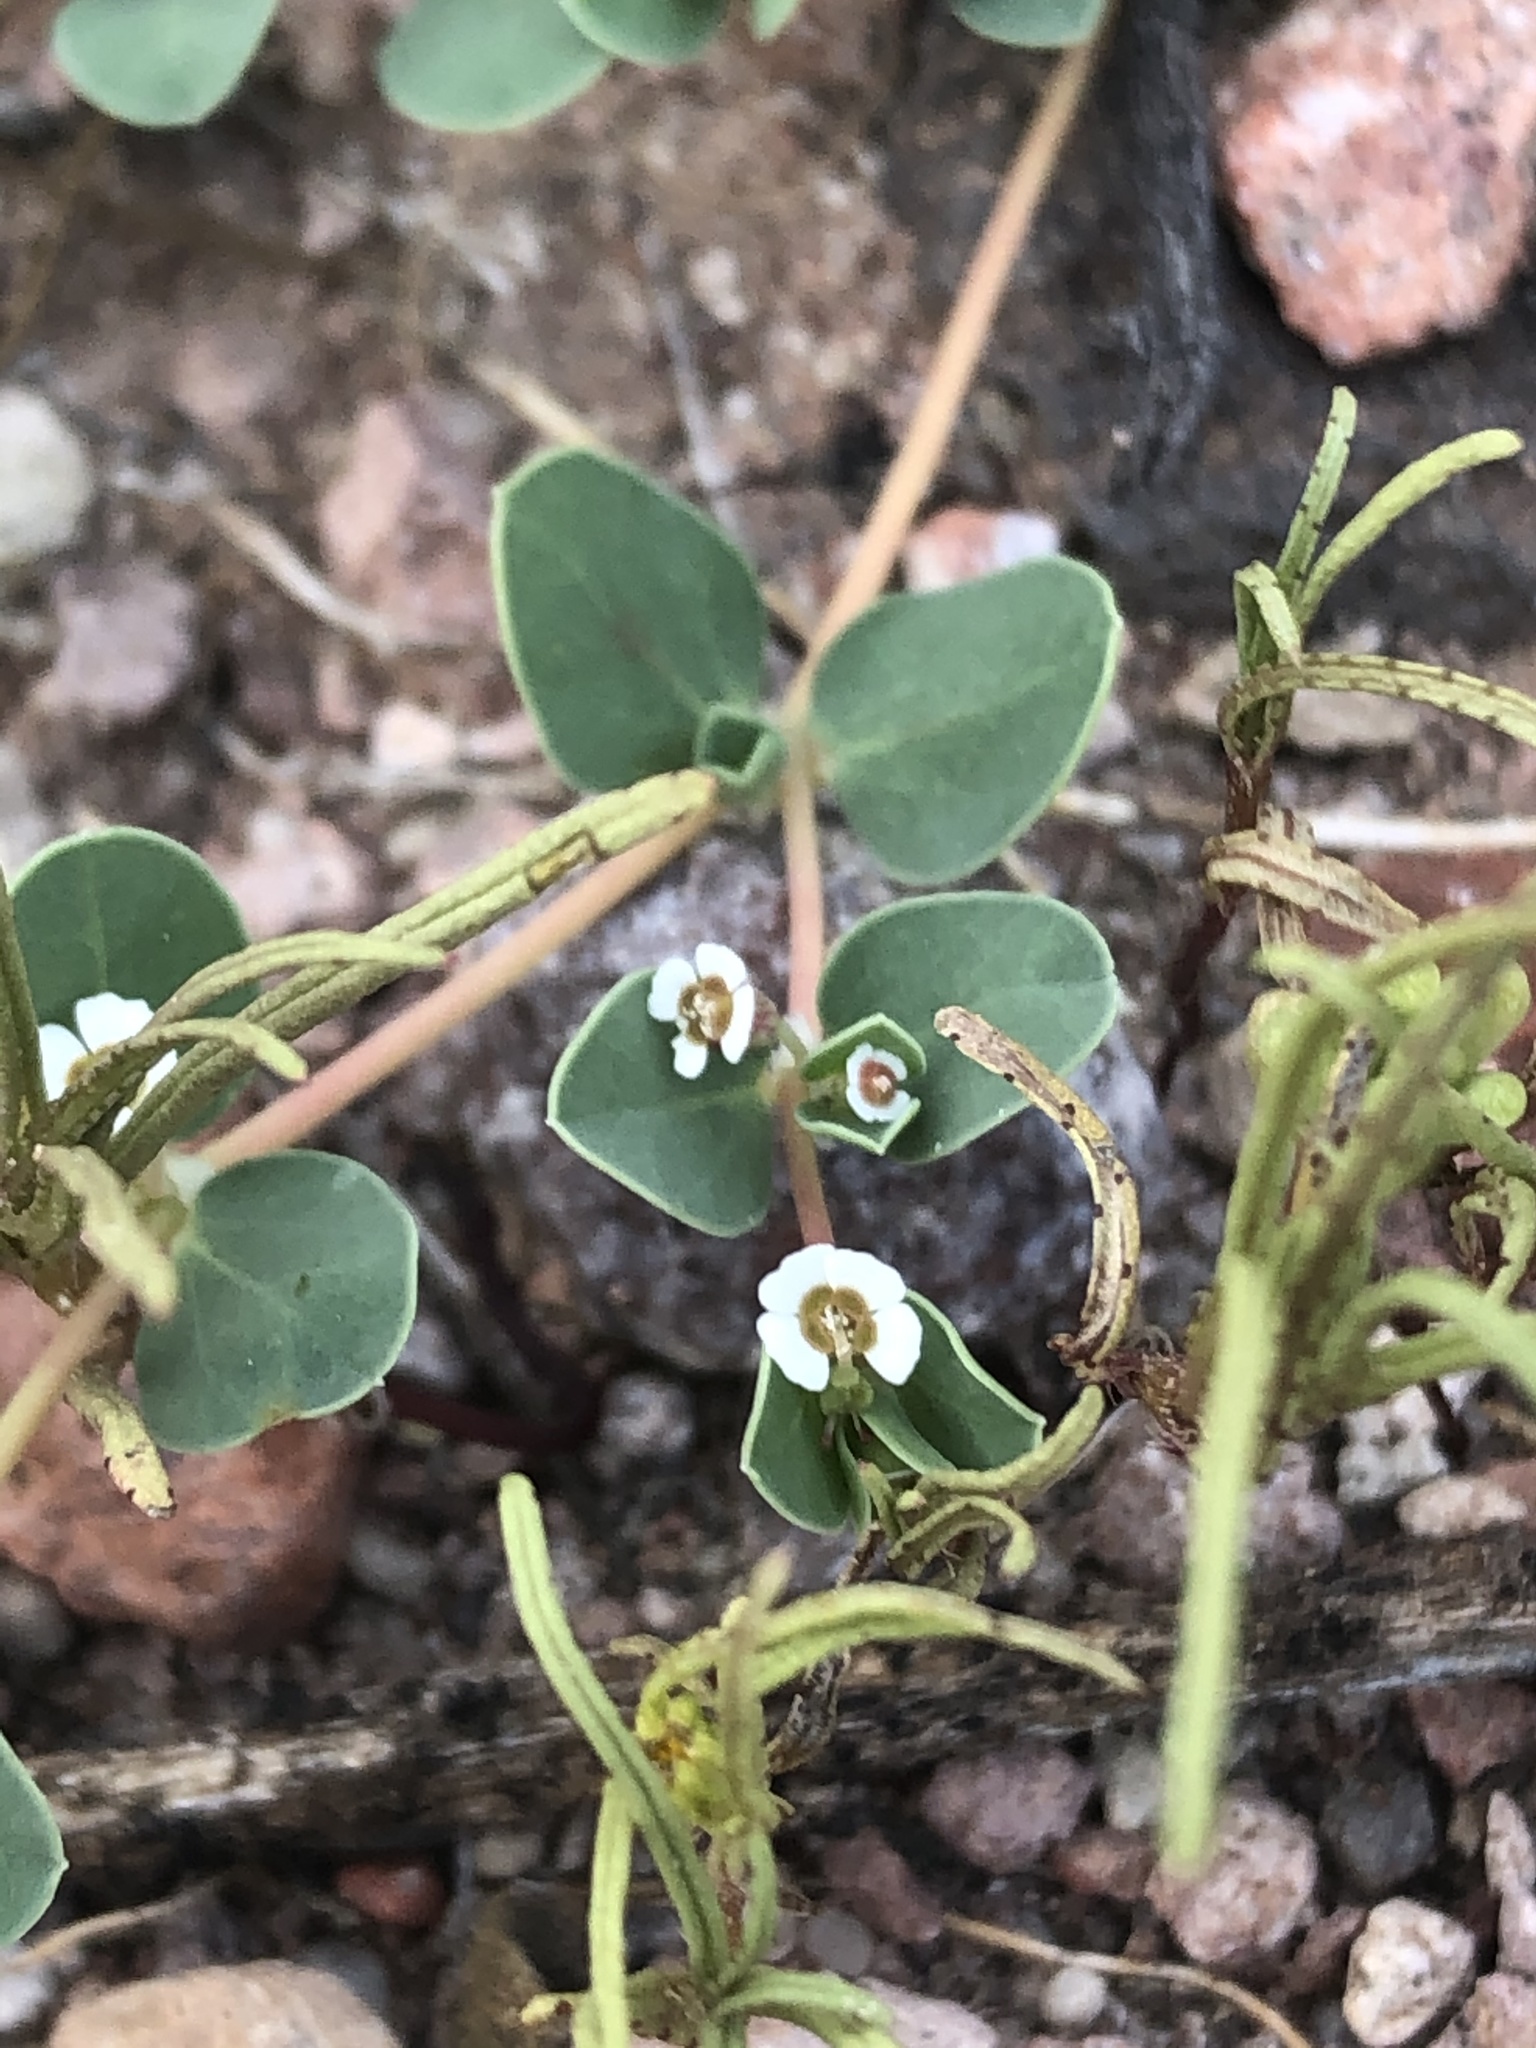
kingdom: Plantae
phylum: Tracheophyta
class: Magnoliopsida
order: Malpighiales
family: Euphorbiaceae
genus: Euphorbia
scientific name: Euphorbia albomarginata
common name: Whitemargin sandmat
